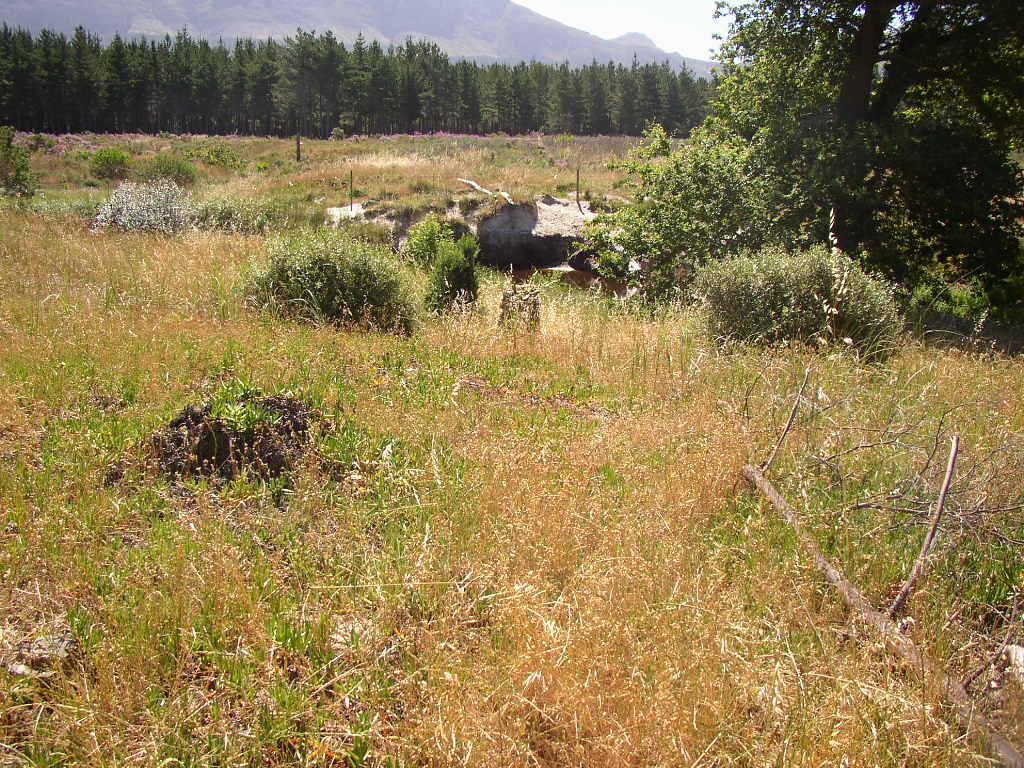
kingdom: Plantae
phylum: Tracheophyta
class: Liliopsida
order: Poales
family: Poaceae
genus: Briza
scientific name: Briza maxima
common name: Big quakinggrass
